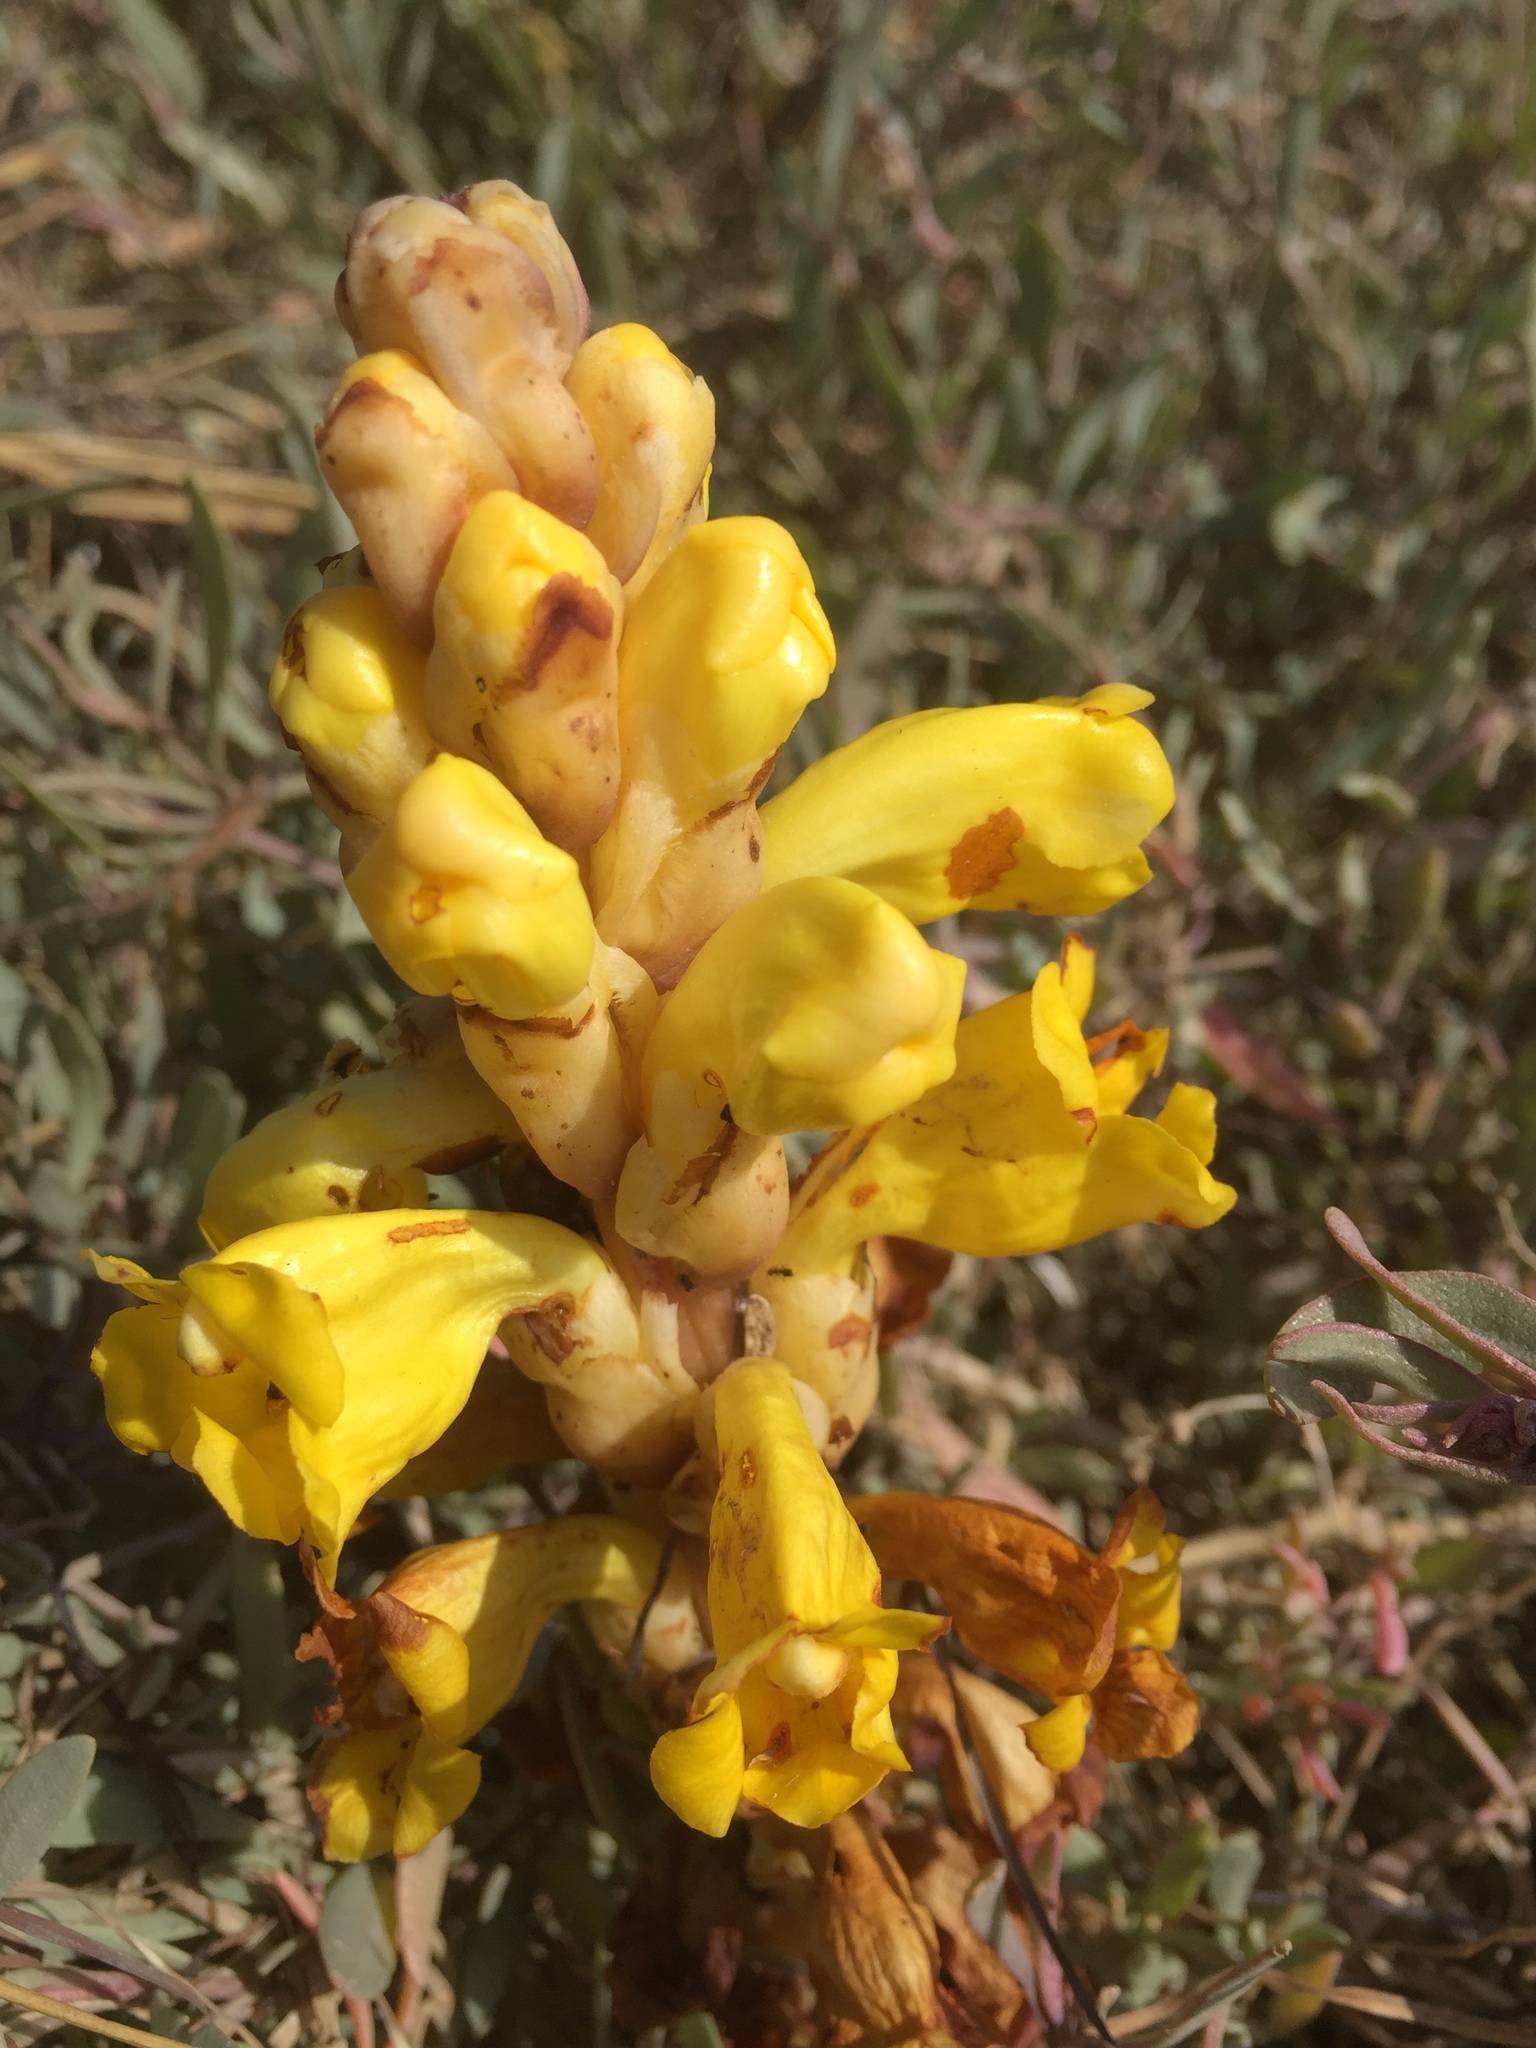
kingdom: Plantae
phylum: Tracheophyta
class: Magnoliopsida
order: Lamiales
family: Orobanchaceae
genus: Cistanche
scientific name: Cistanche phelypaea
